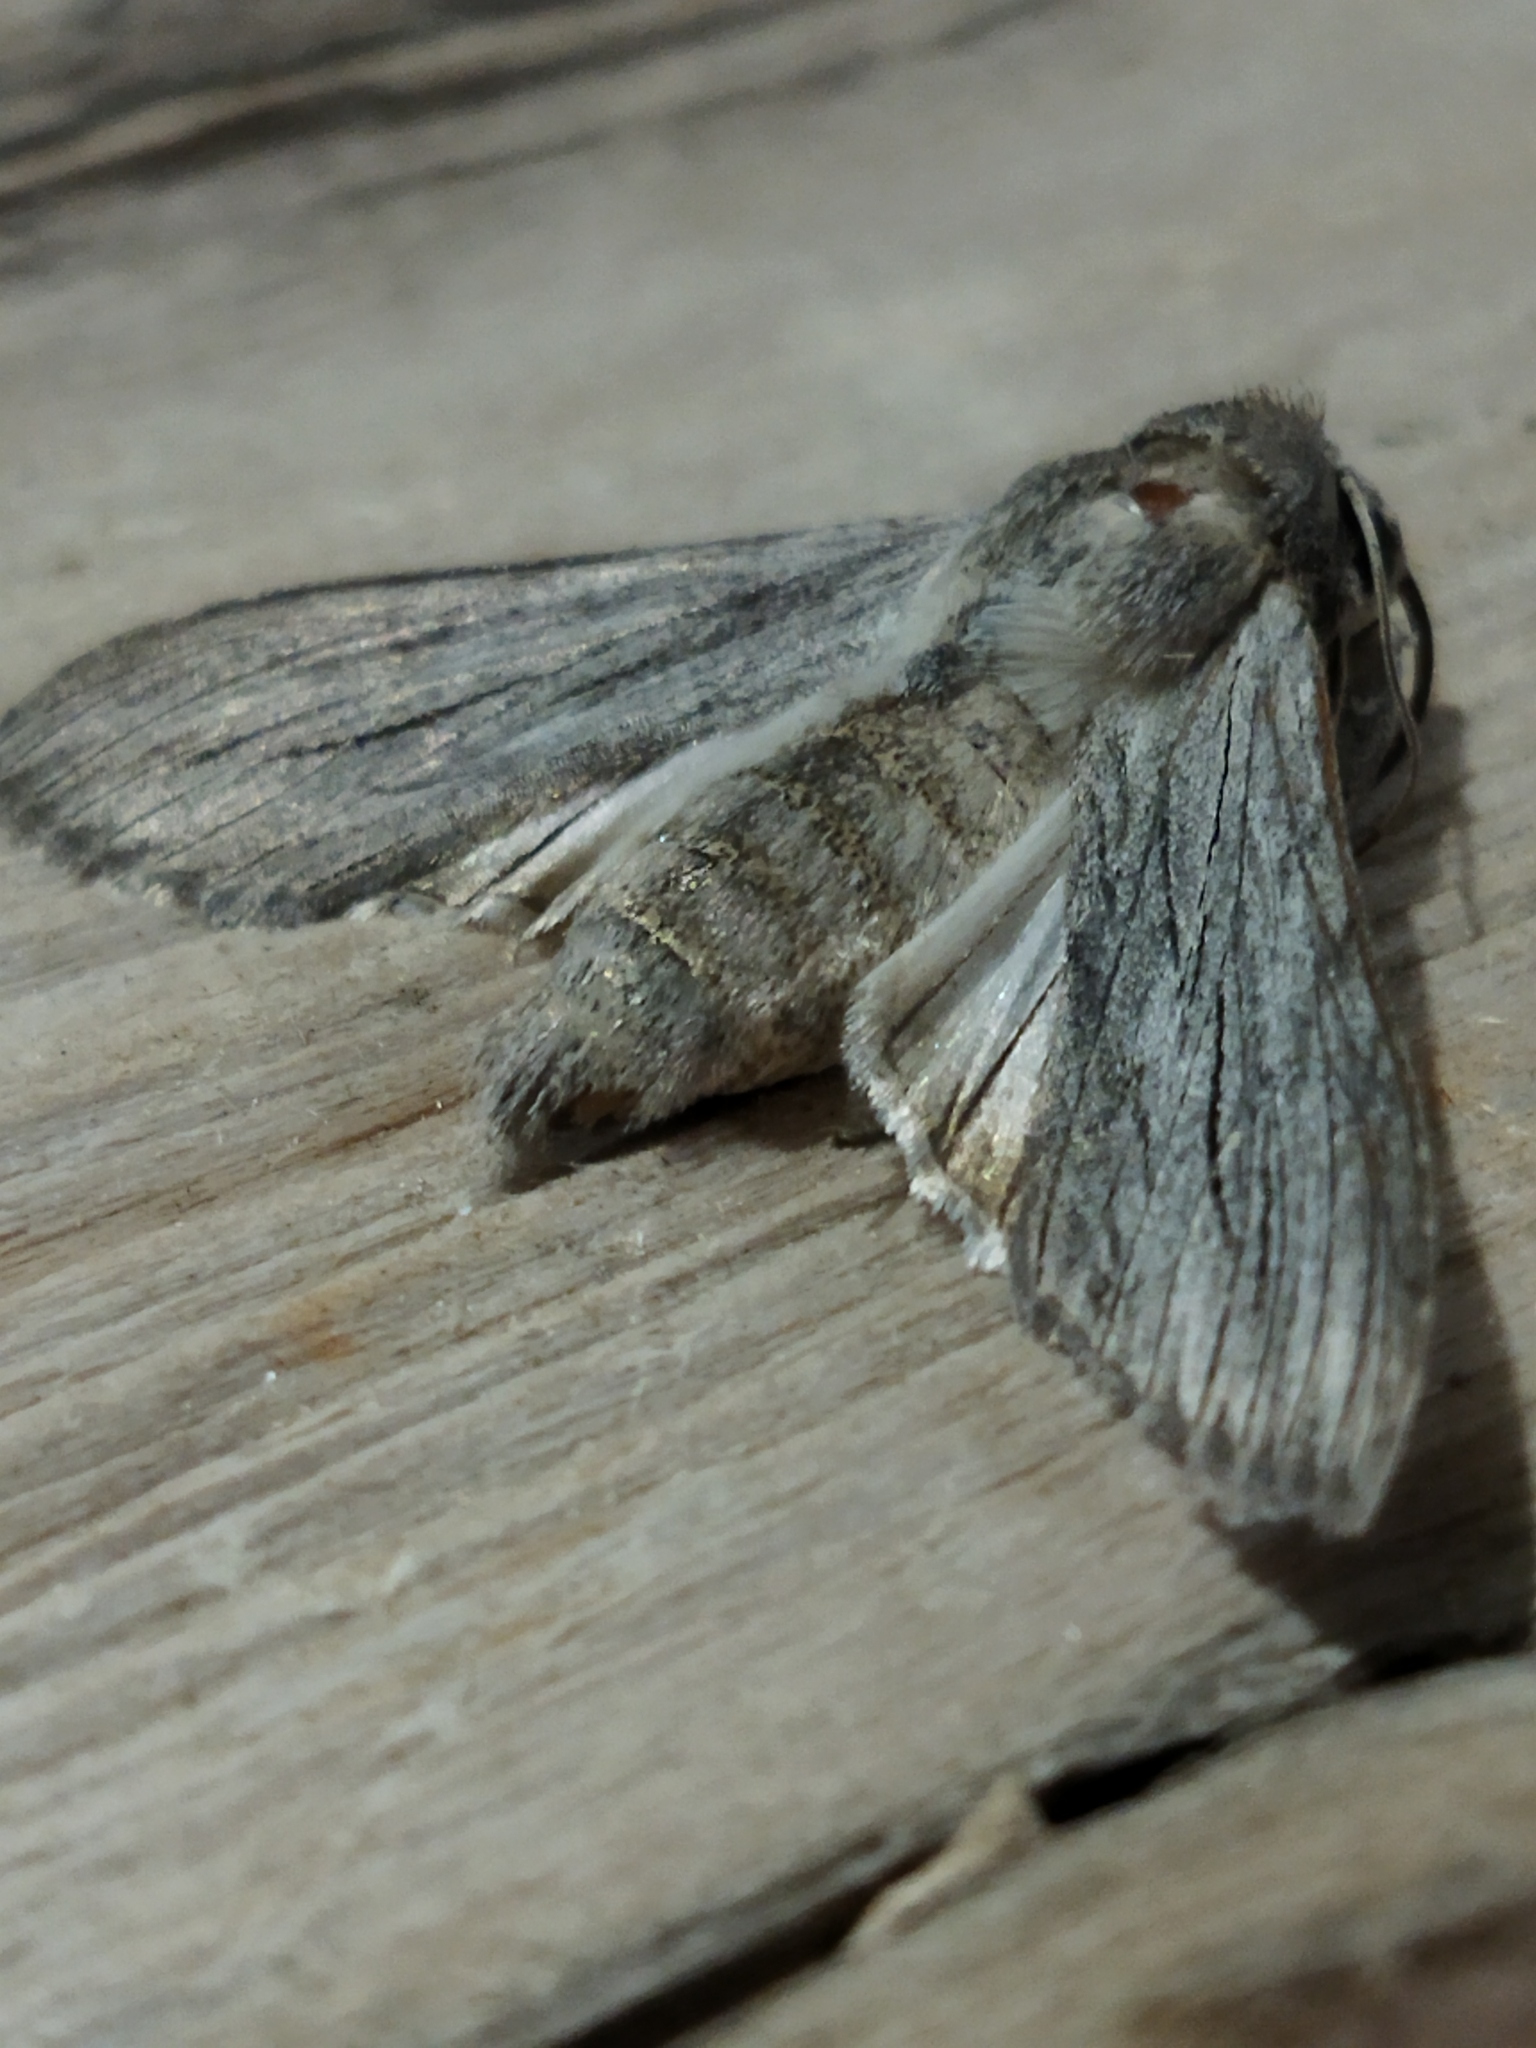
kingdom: Animalia
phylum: Arthropoda
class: Insecta
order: Lepidoptera
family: Noctuidae
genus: Cucullia
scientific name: Cucullia tanaceti
